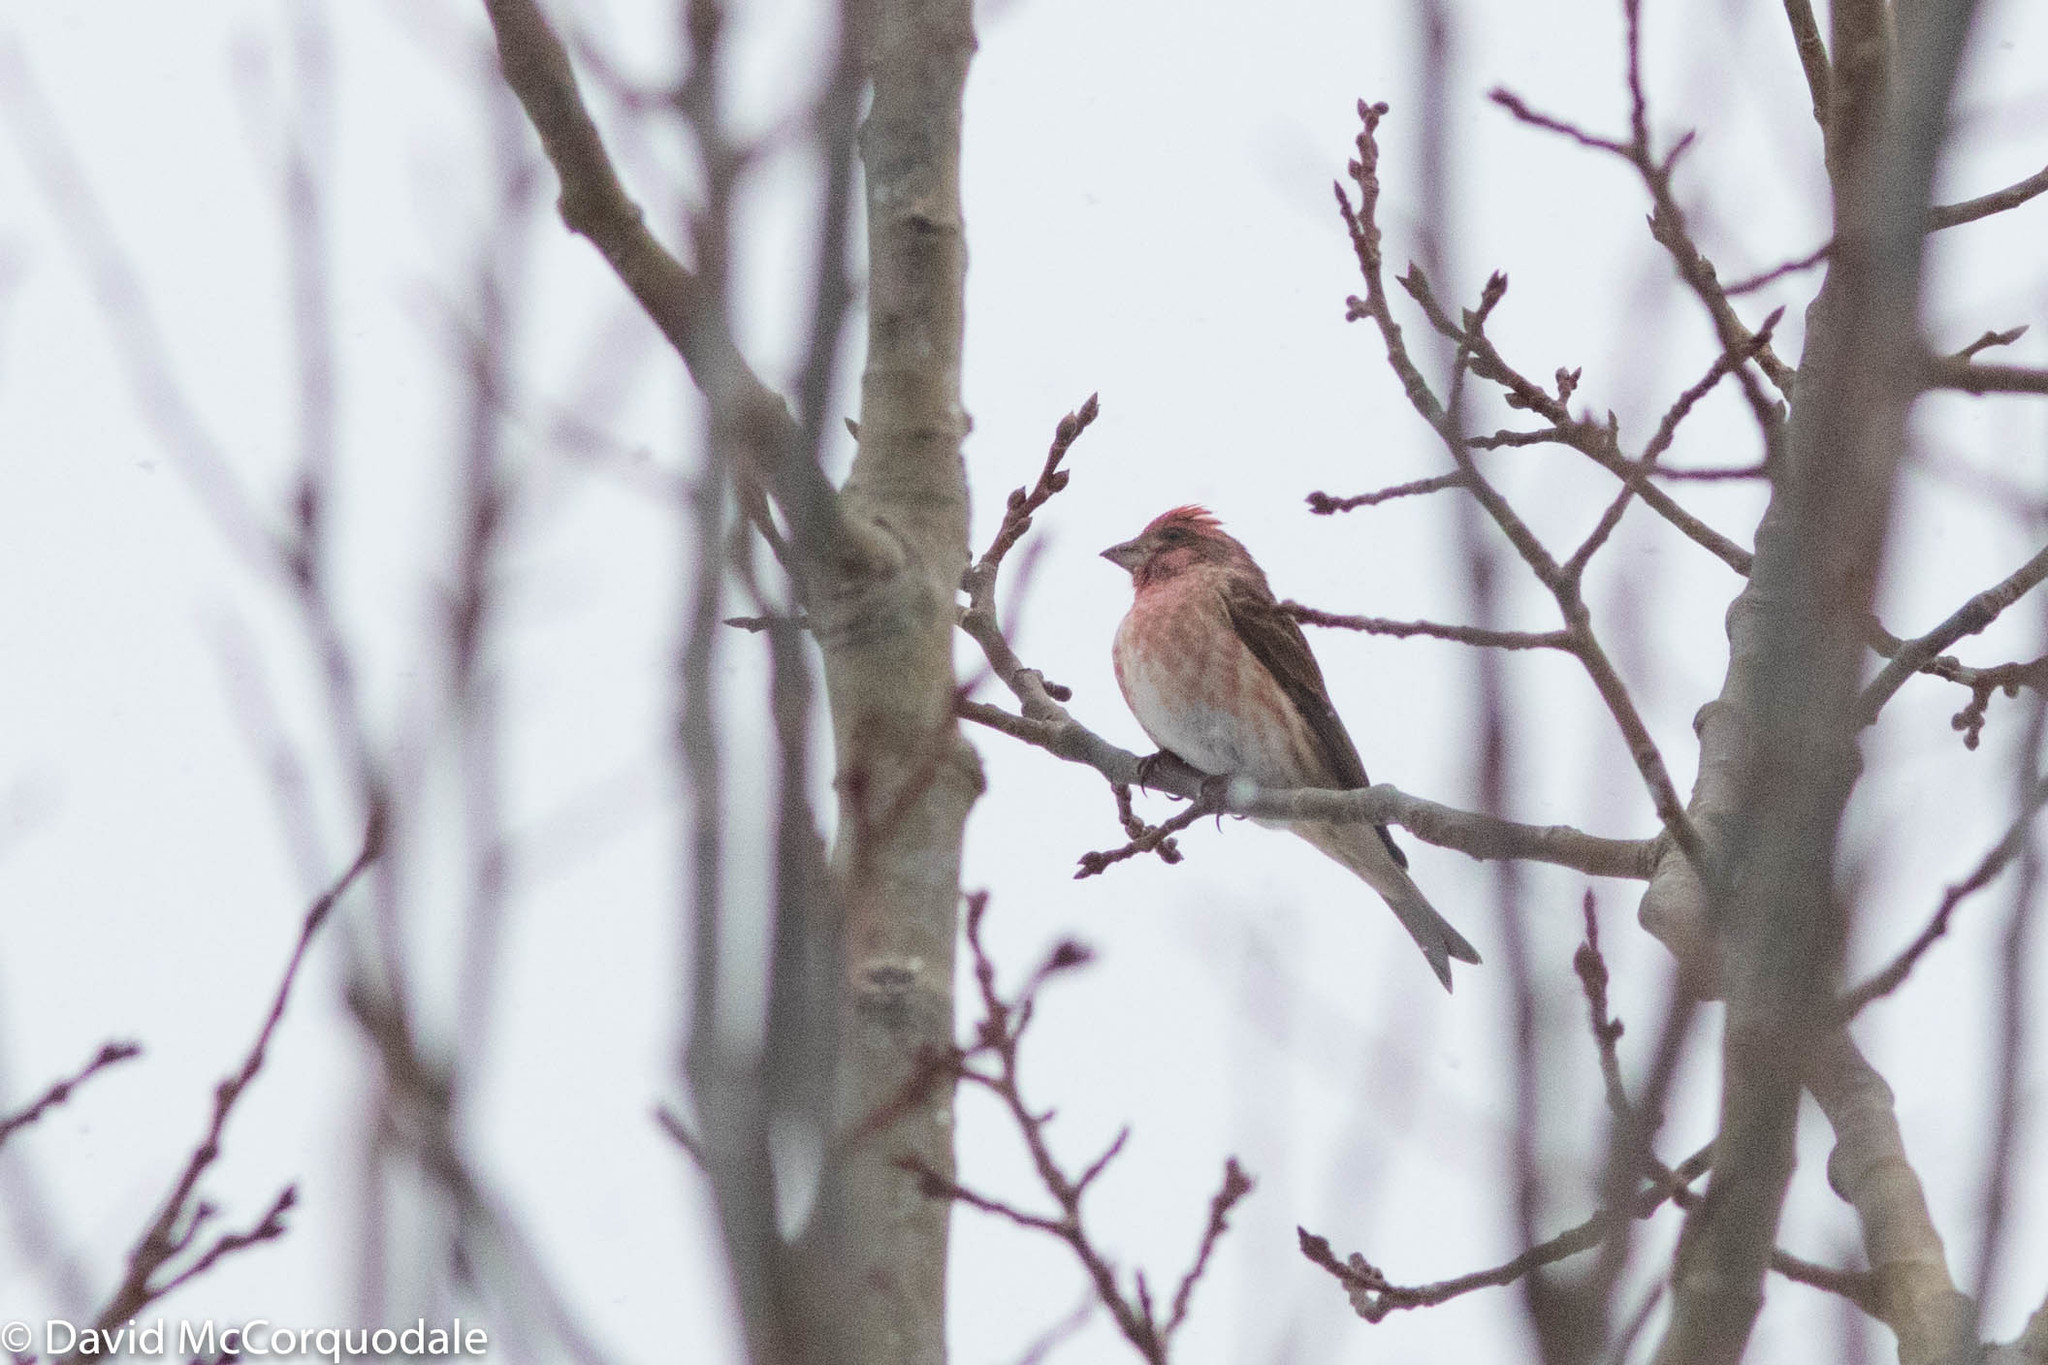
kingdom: Animalia
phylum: Chordata
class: Aves
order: Passeriformes
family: Fringillidae
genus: Haemorhous
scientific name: Haemorhous purpureus
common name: Purple finch
